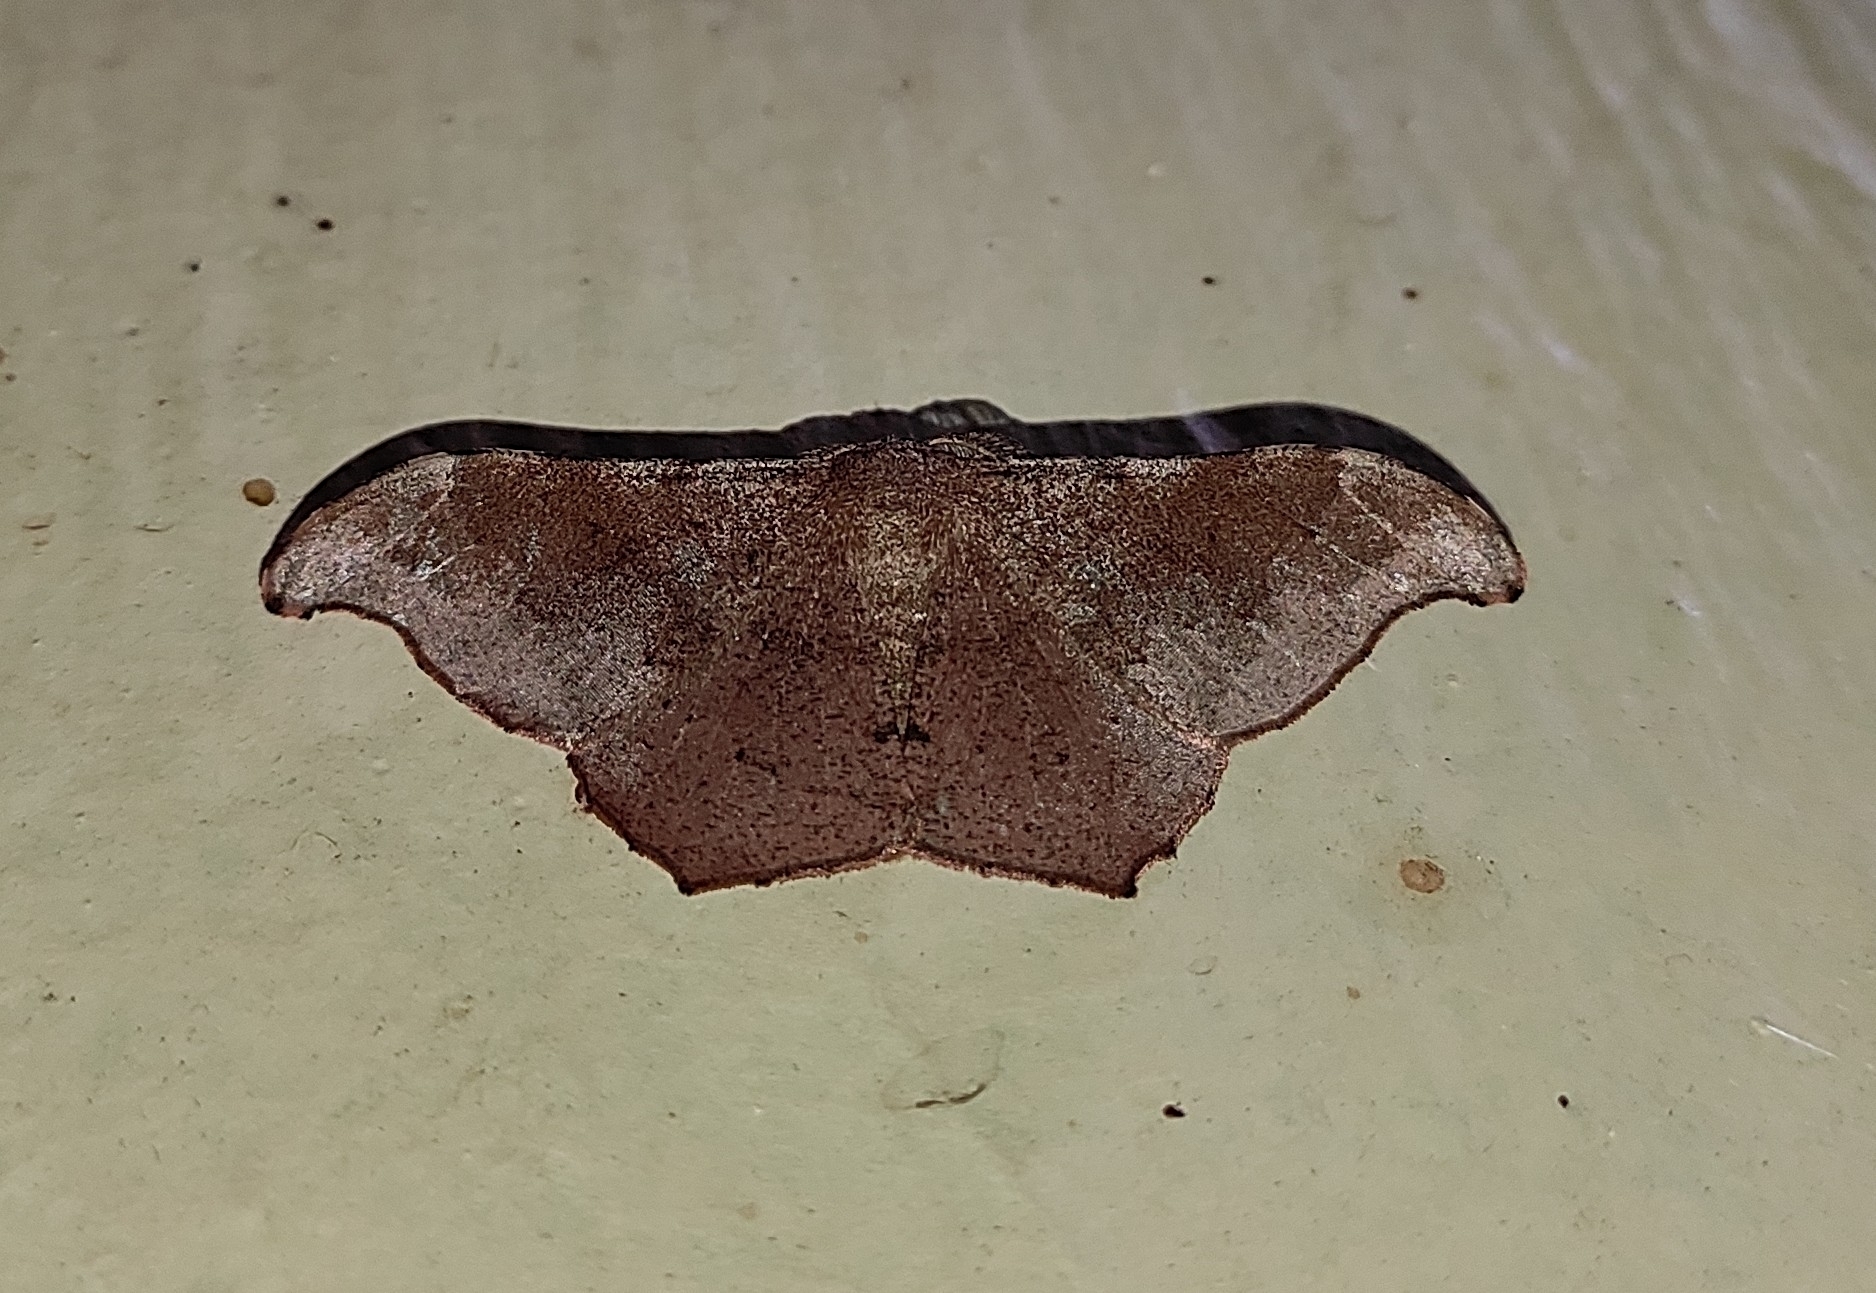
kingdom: Animalia
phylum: Arthropoda
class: Insecta
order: Lepidoptera
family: Geometridae
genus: Hyposidra
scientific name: Hyposidra talaca
